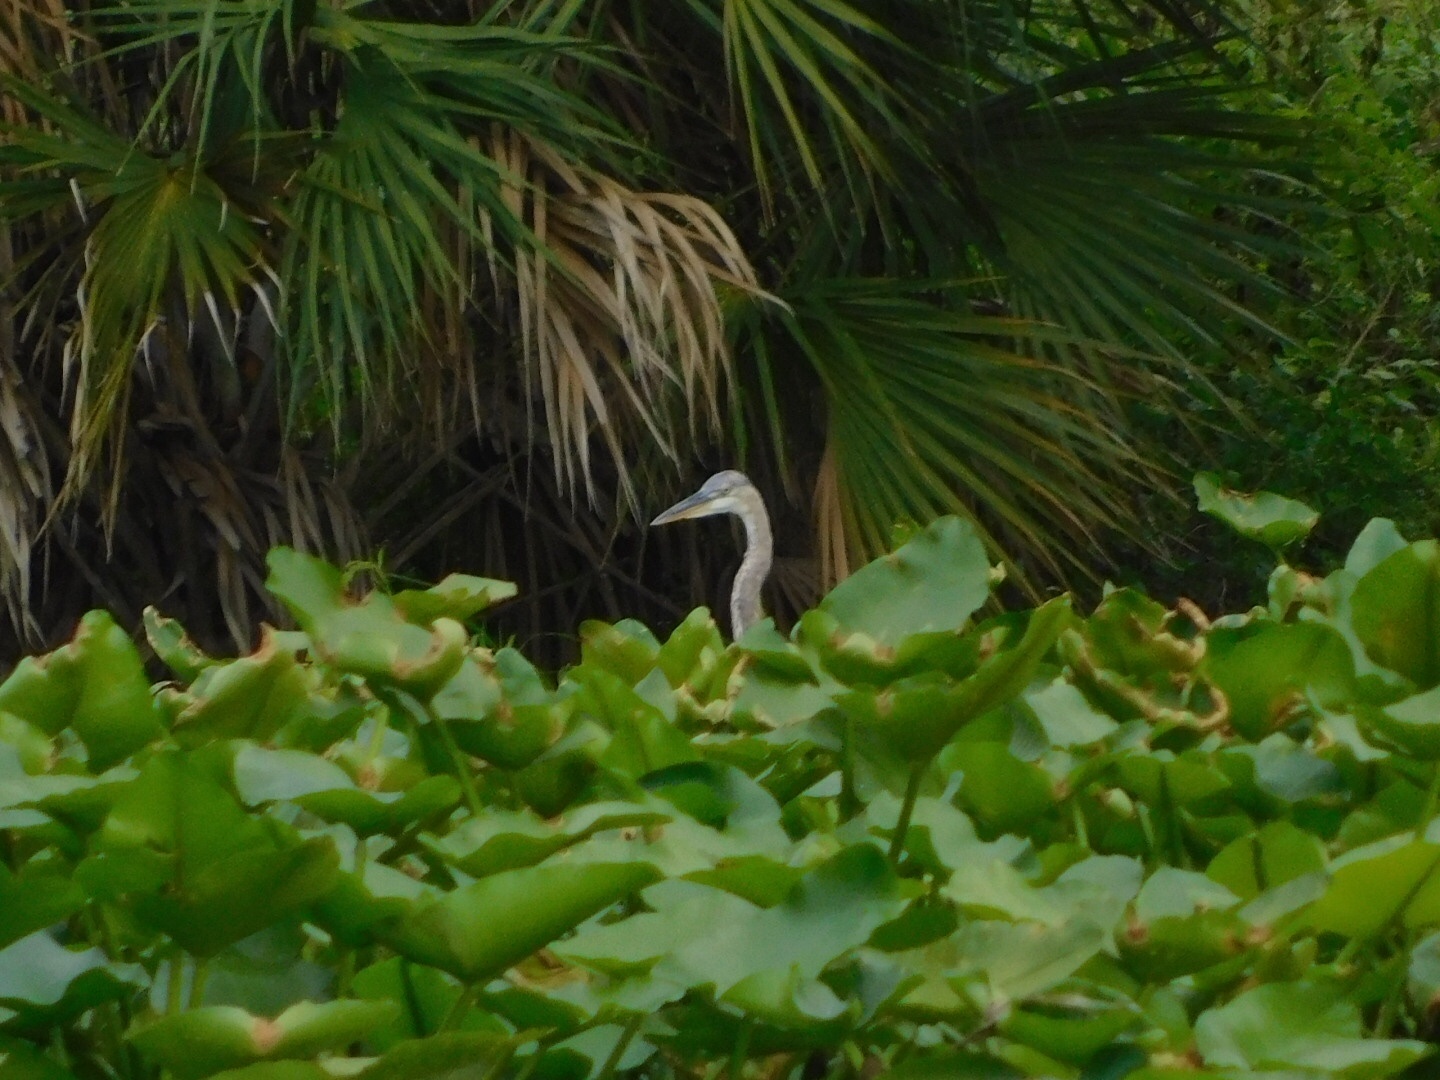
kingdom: Animalia
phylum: Chordata
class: Aves
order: Pelecaniformes
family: Ardeidae
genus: Ardea
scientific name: Ardea herodias
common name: Great blue heron
